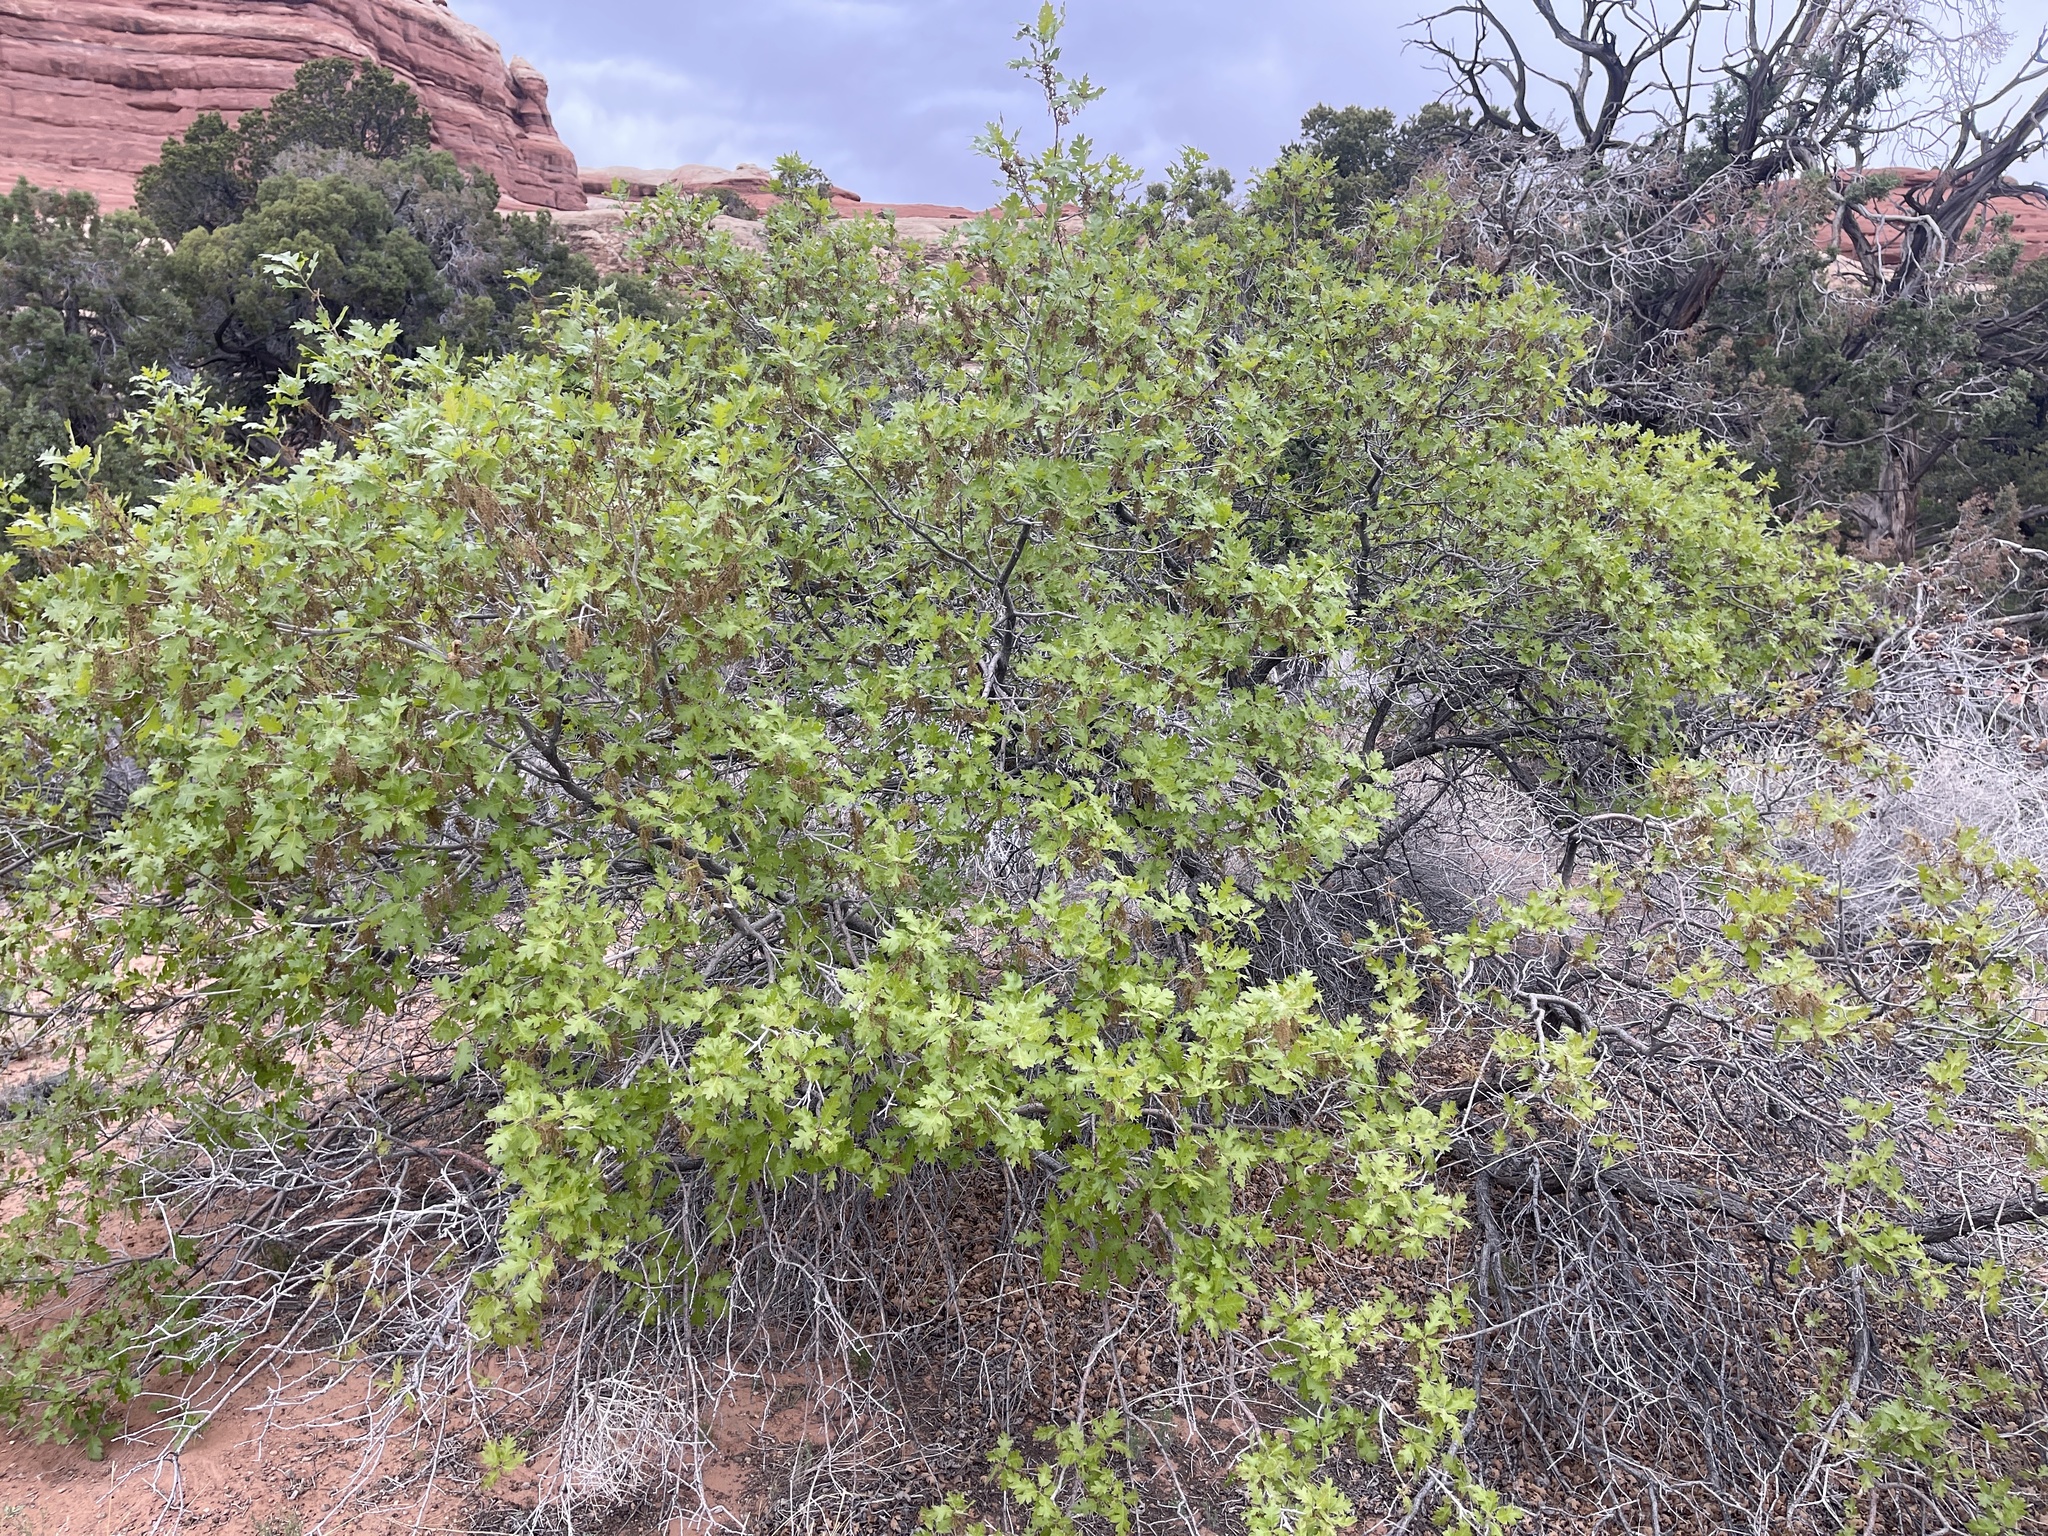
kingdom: Plantae
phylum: Tracheophyta
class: Magnoliopsida
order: Fagales
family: Fagaceae
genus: Quercus
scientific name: Quercus gambelii
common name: Gambel oak
